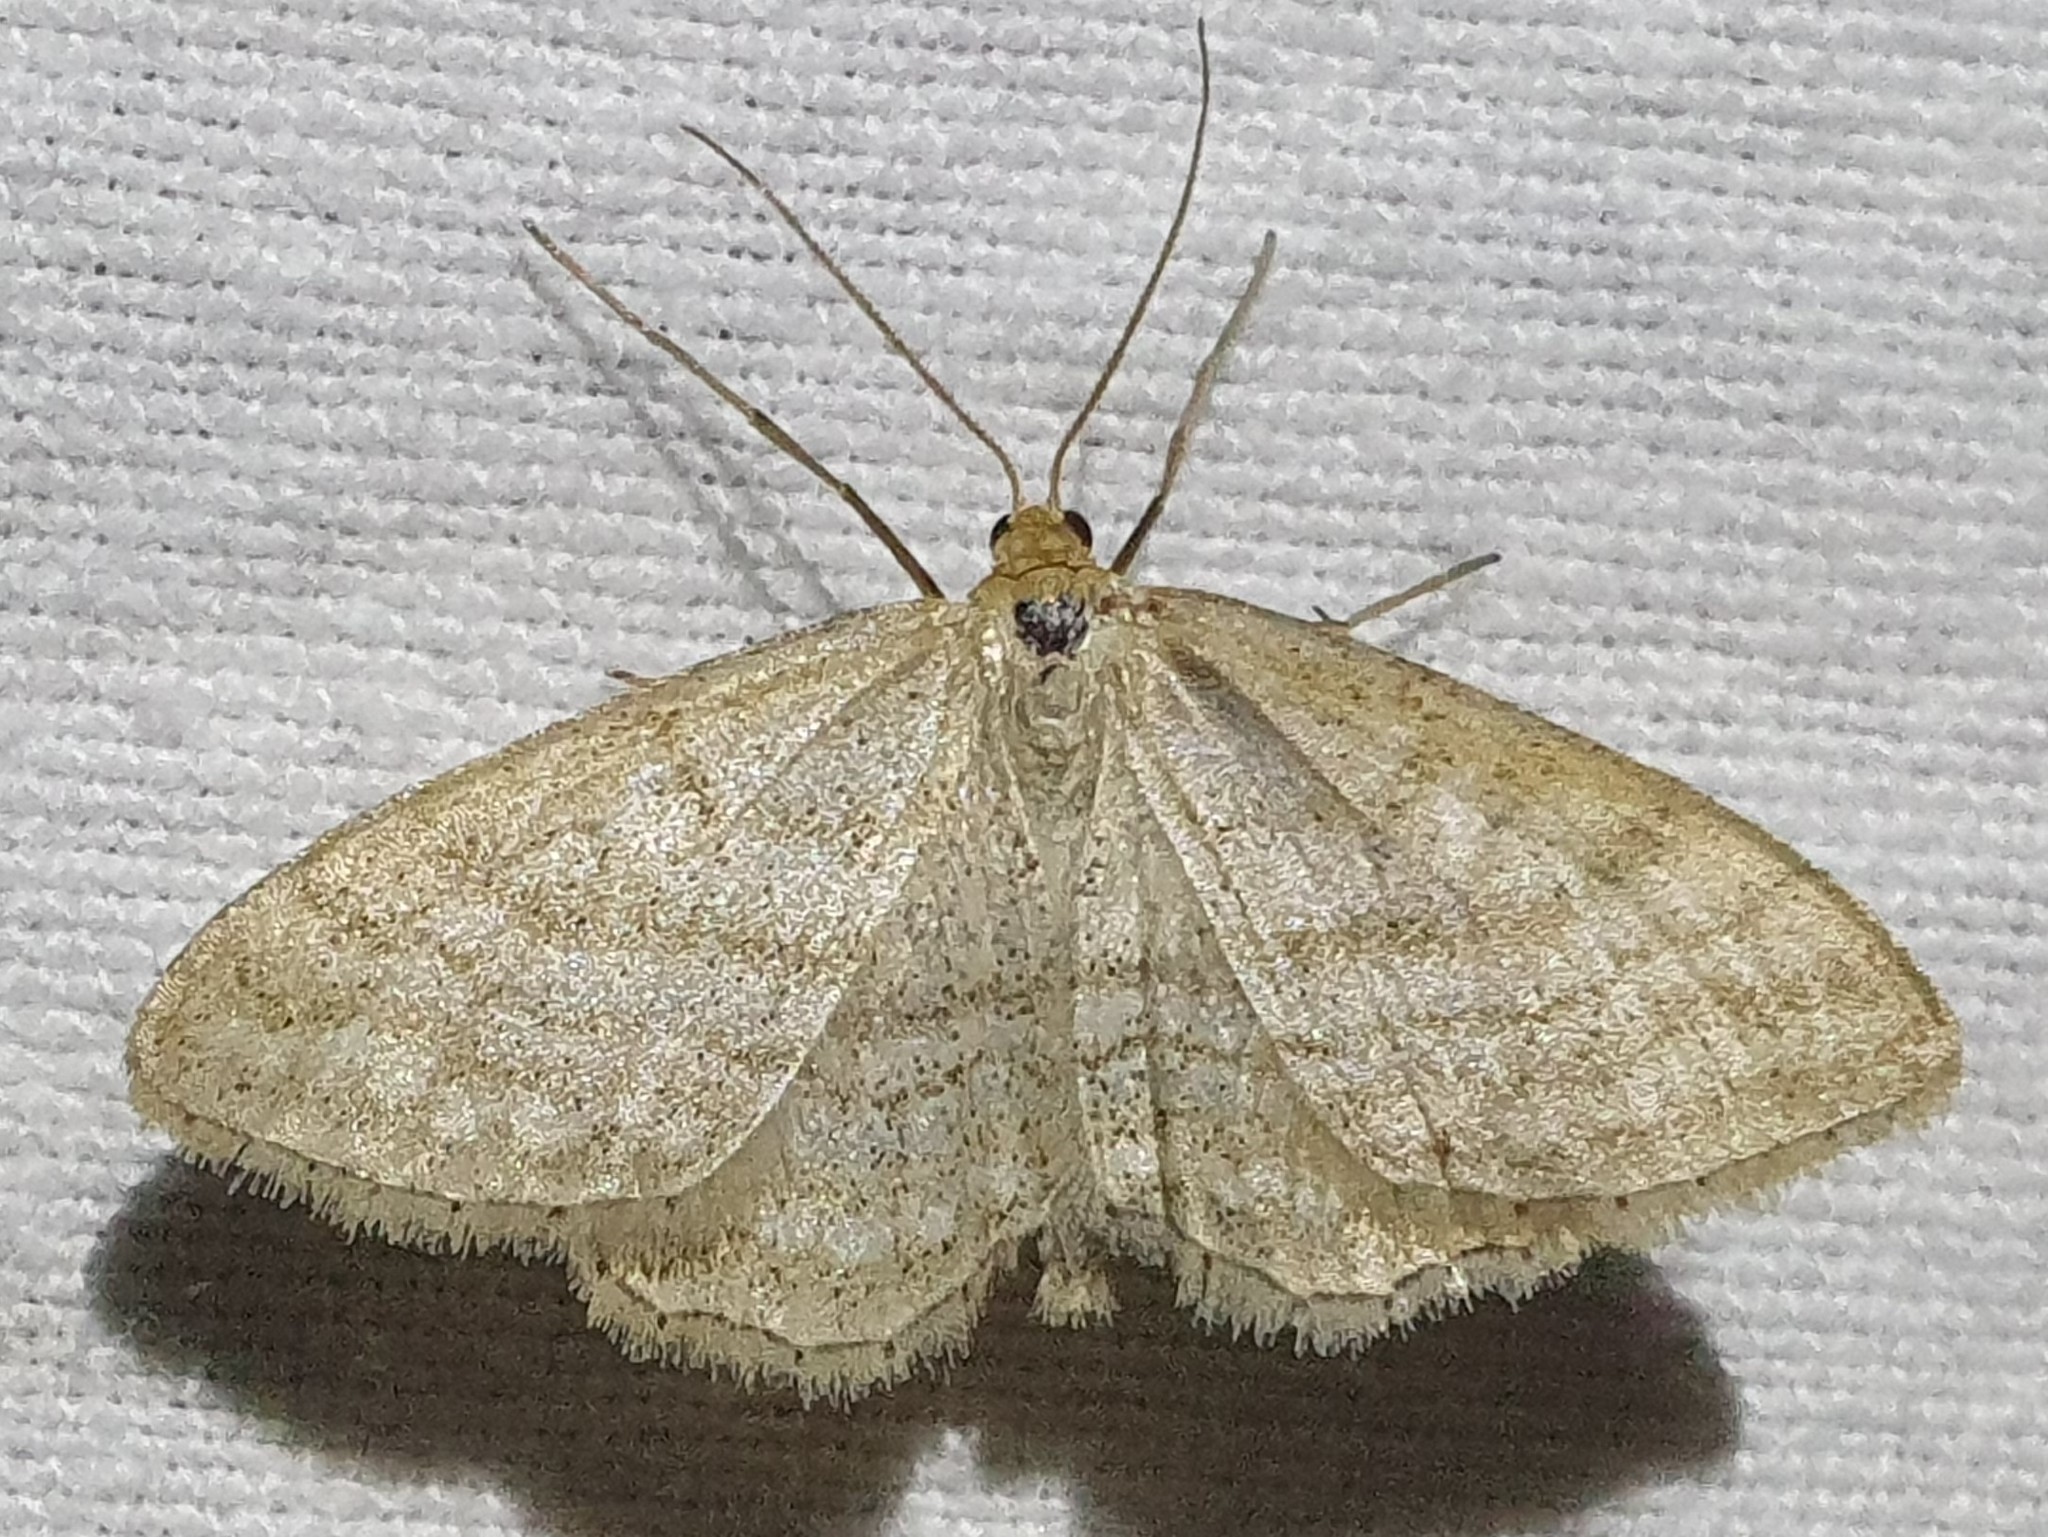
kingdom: Animalia
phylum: Arthropoda
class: Insecta
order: Lepidoptera
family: Geometridae
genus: Idaea
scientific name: Idaea antiquaria
